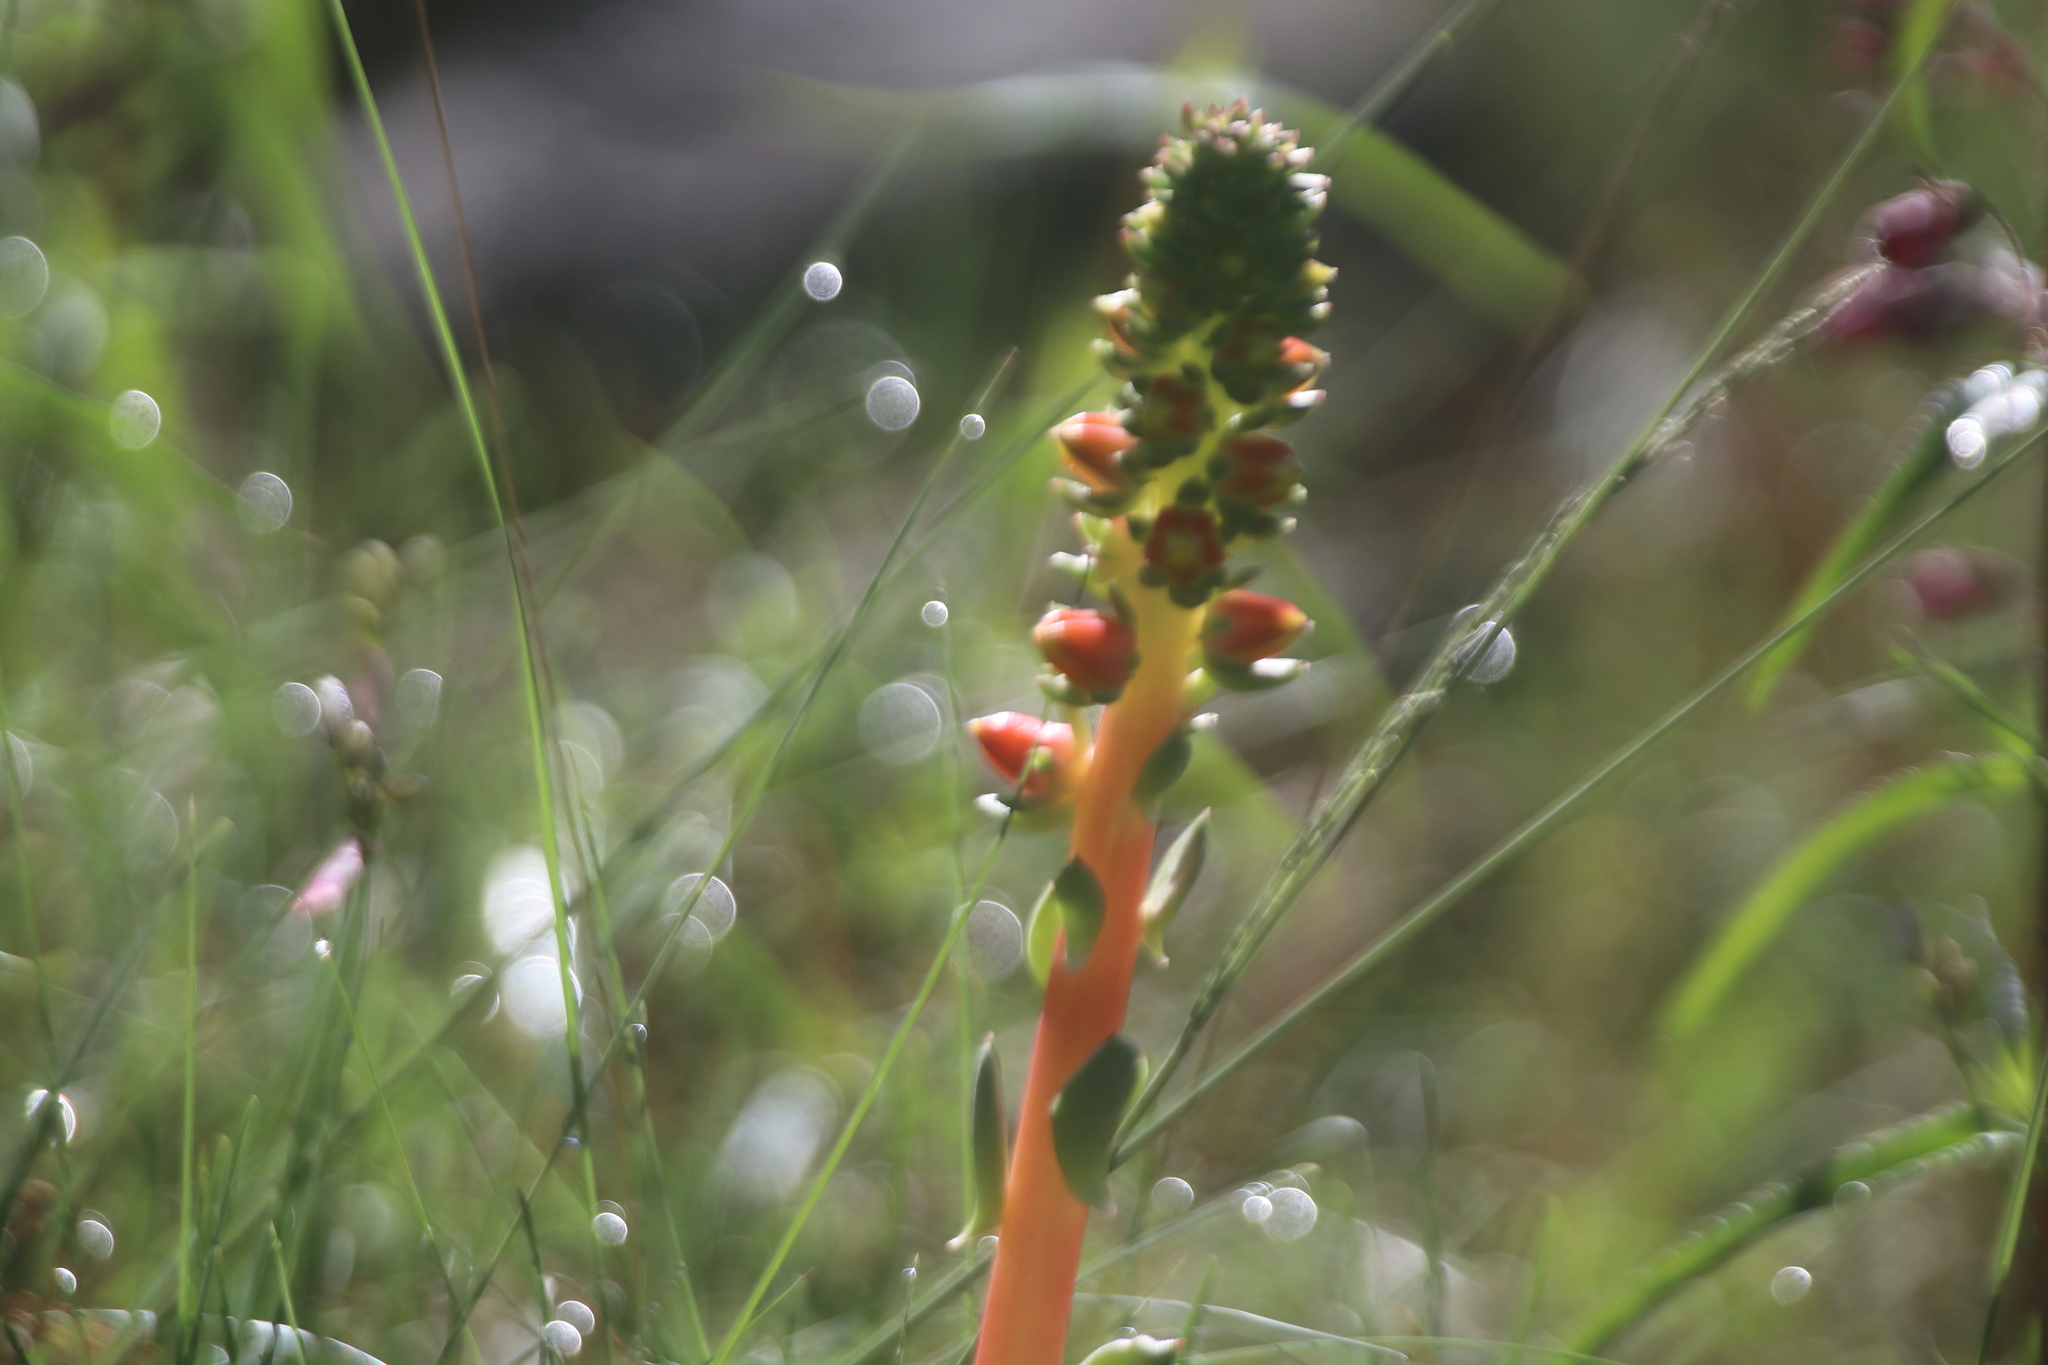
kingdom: Plantae
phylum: Tracheophyta
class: Magnoliopsida
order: Saxifragales
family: Crassulaceae
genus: Echeveria
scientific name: Echeveria mucronata
